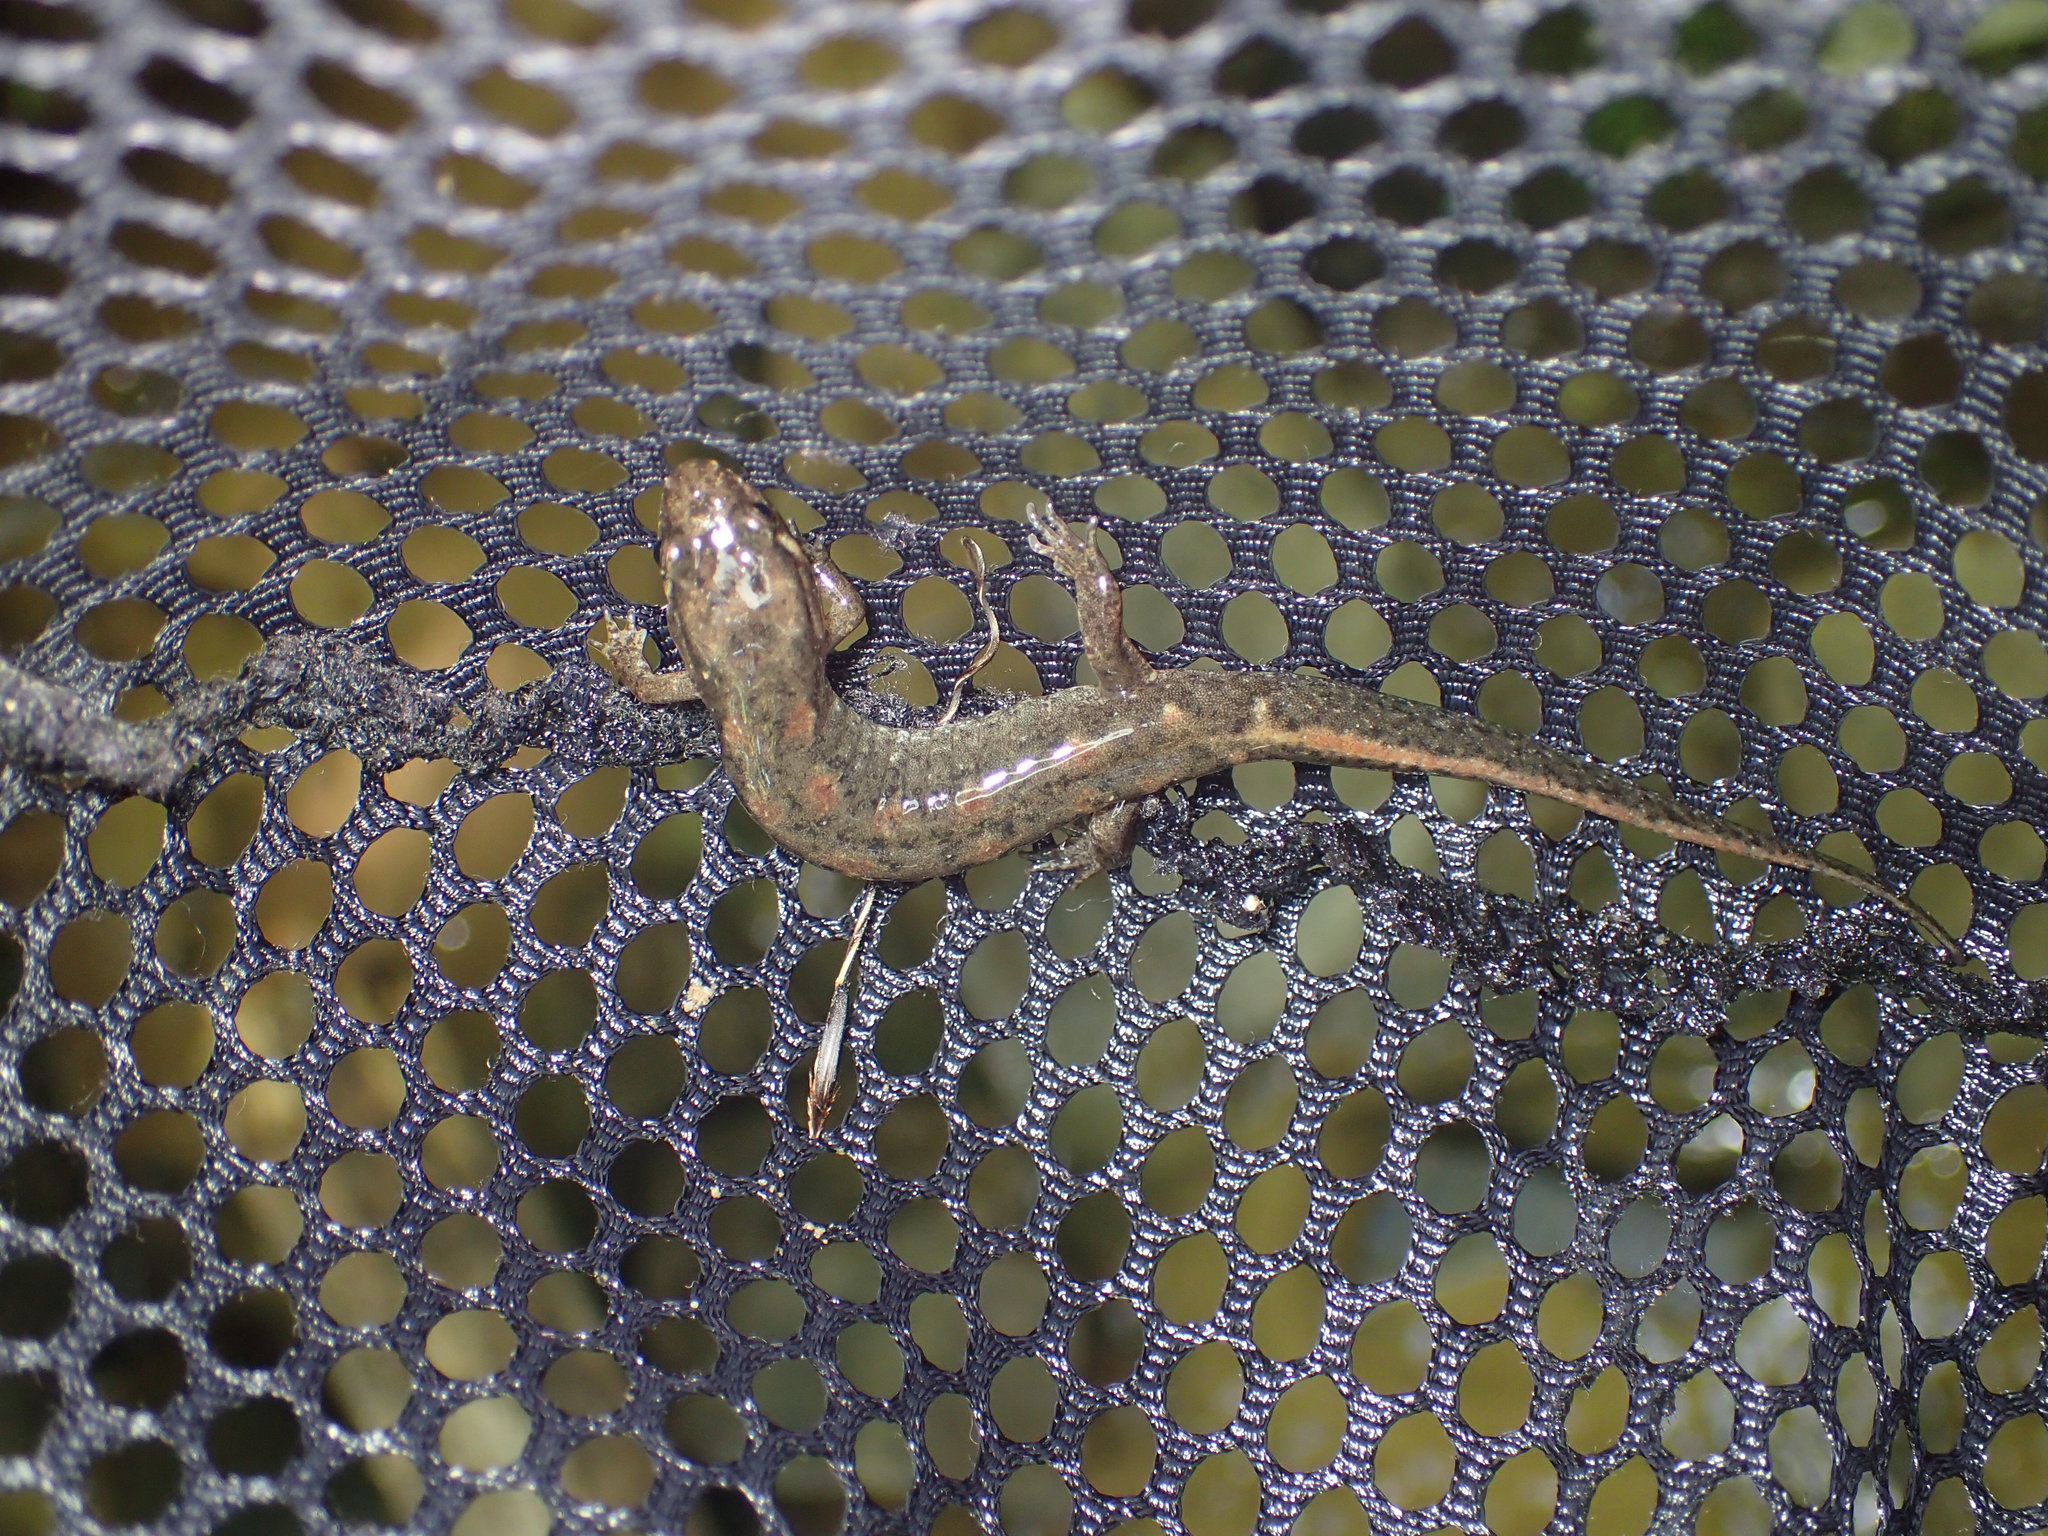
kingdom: Animalia
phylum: Chordata
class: Amphibia
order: Caudata
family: Plethodontidae
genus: Desmognathus
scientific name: Desmognathus conanti
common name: Spotted dusky salamander
